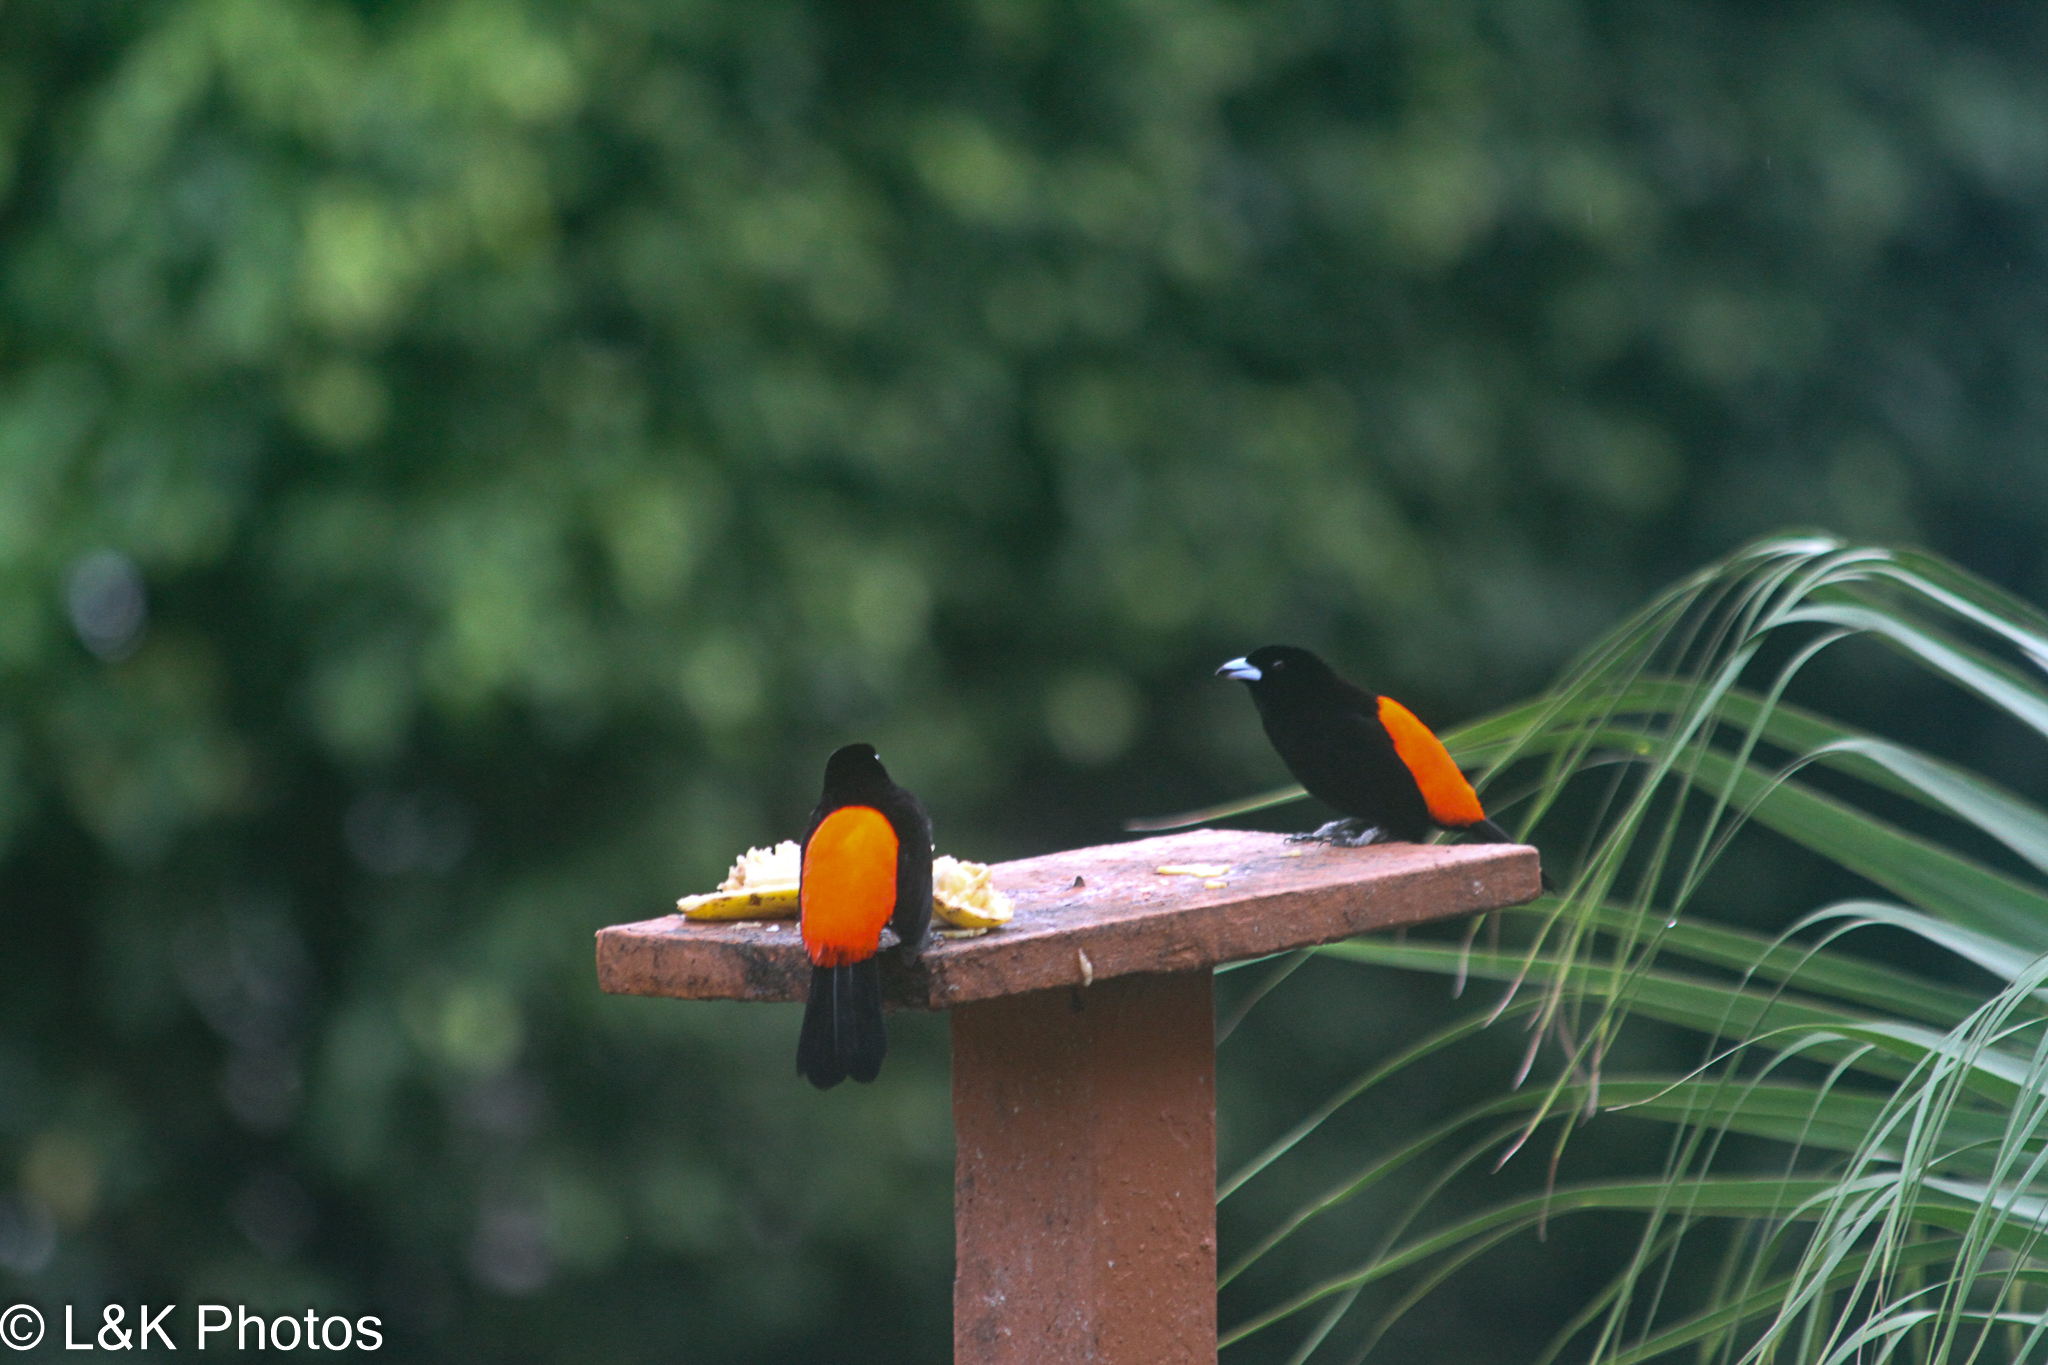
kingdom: Animalia
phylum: Chordata
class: Aves
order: Passeriformes
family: Thraupidae
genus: Ramphocelus
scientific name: Ramphocelus passerinii
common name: Passerini's tanager
